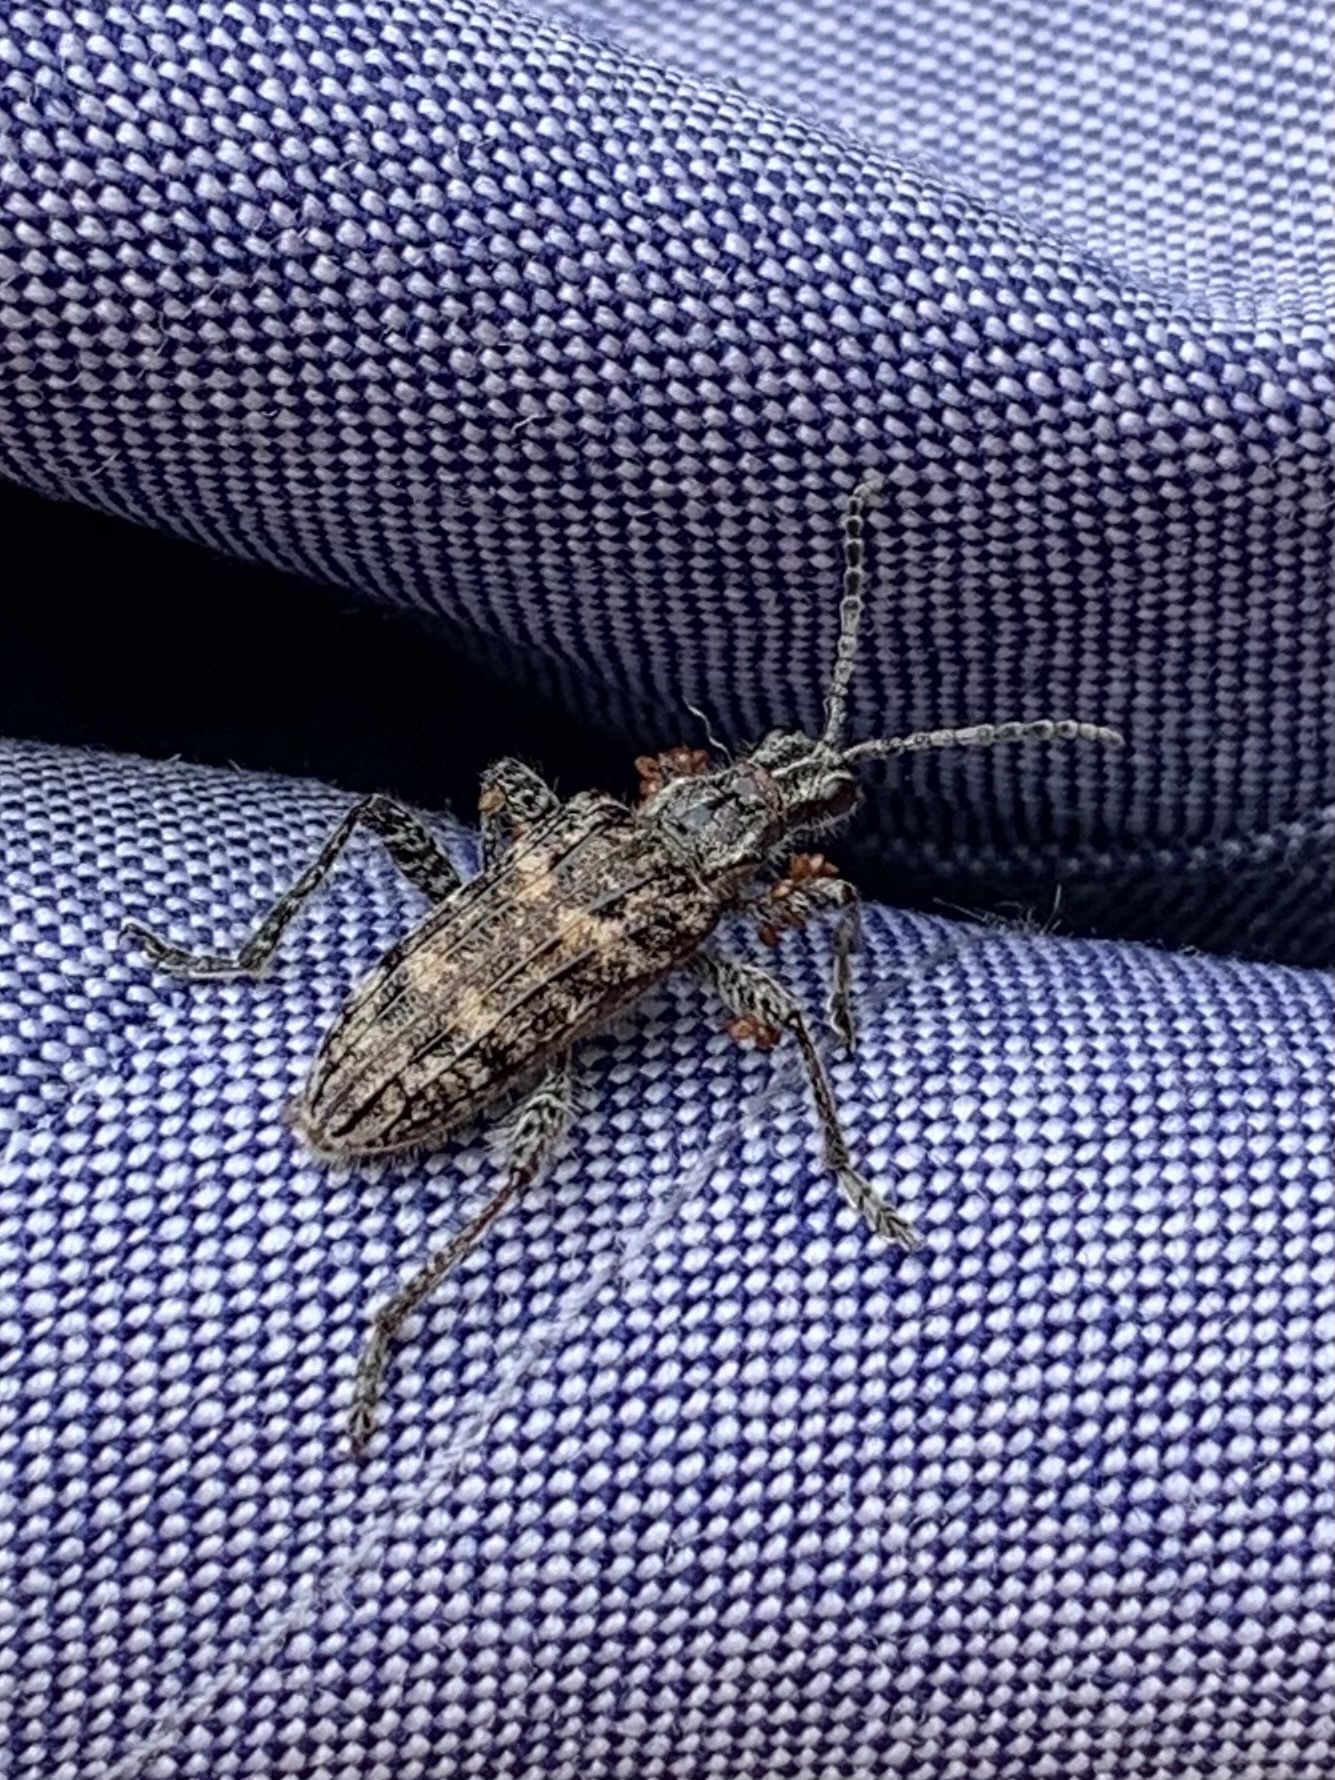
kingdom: Animalia
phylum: Arthropoda
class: Insecta
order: Coleoptera
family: Cerambycidae
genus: Rhagium
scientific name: Rhagium inquisitor
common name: Ribbed pine borer
